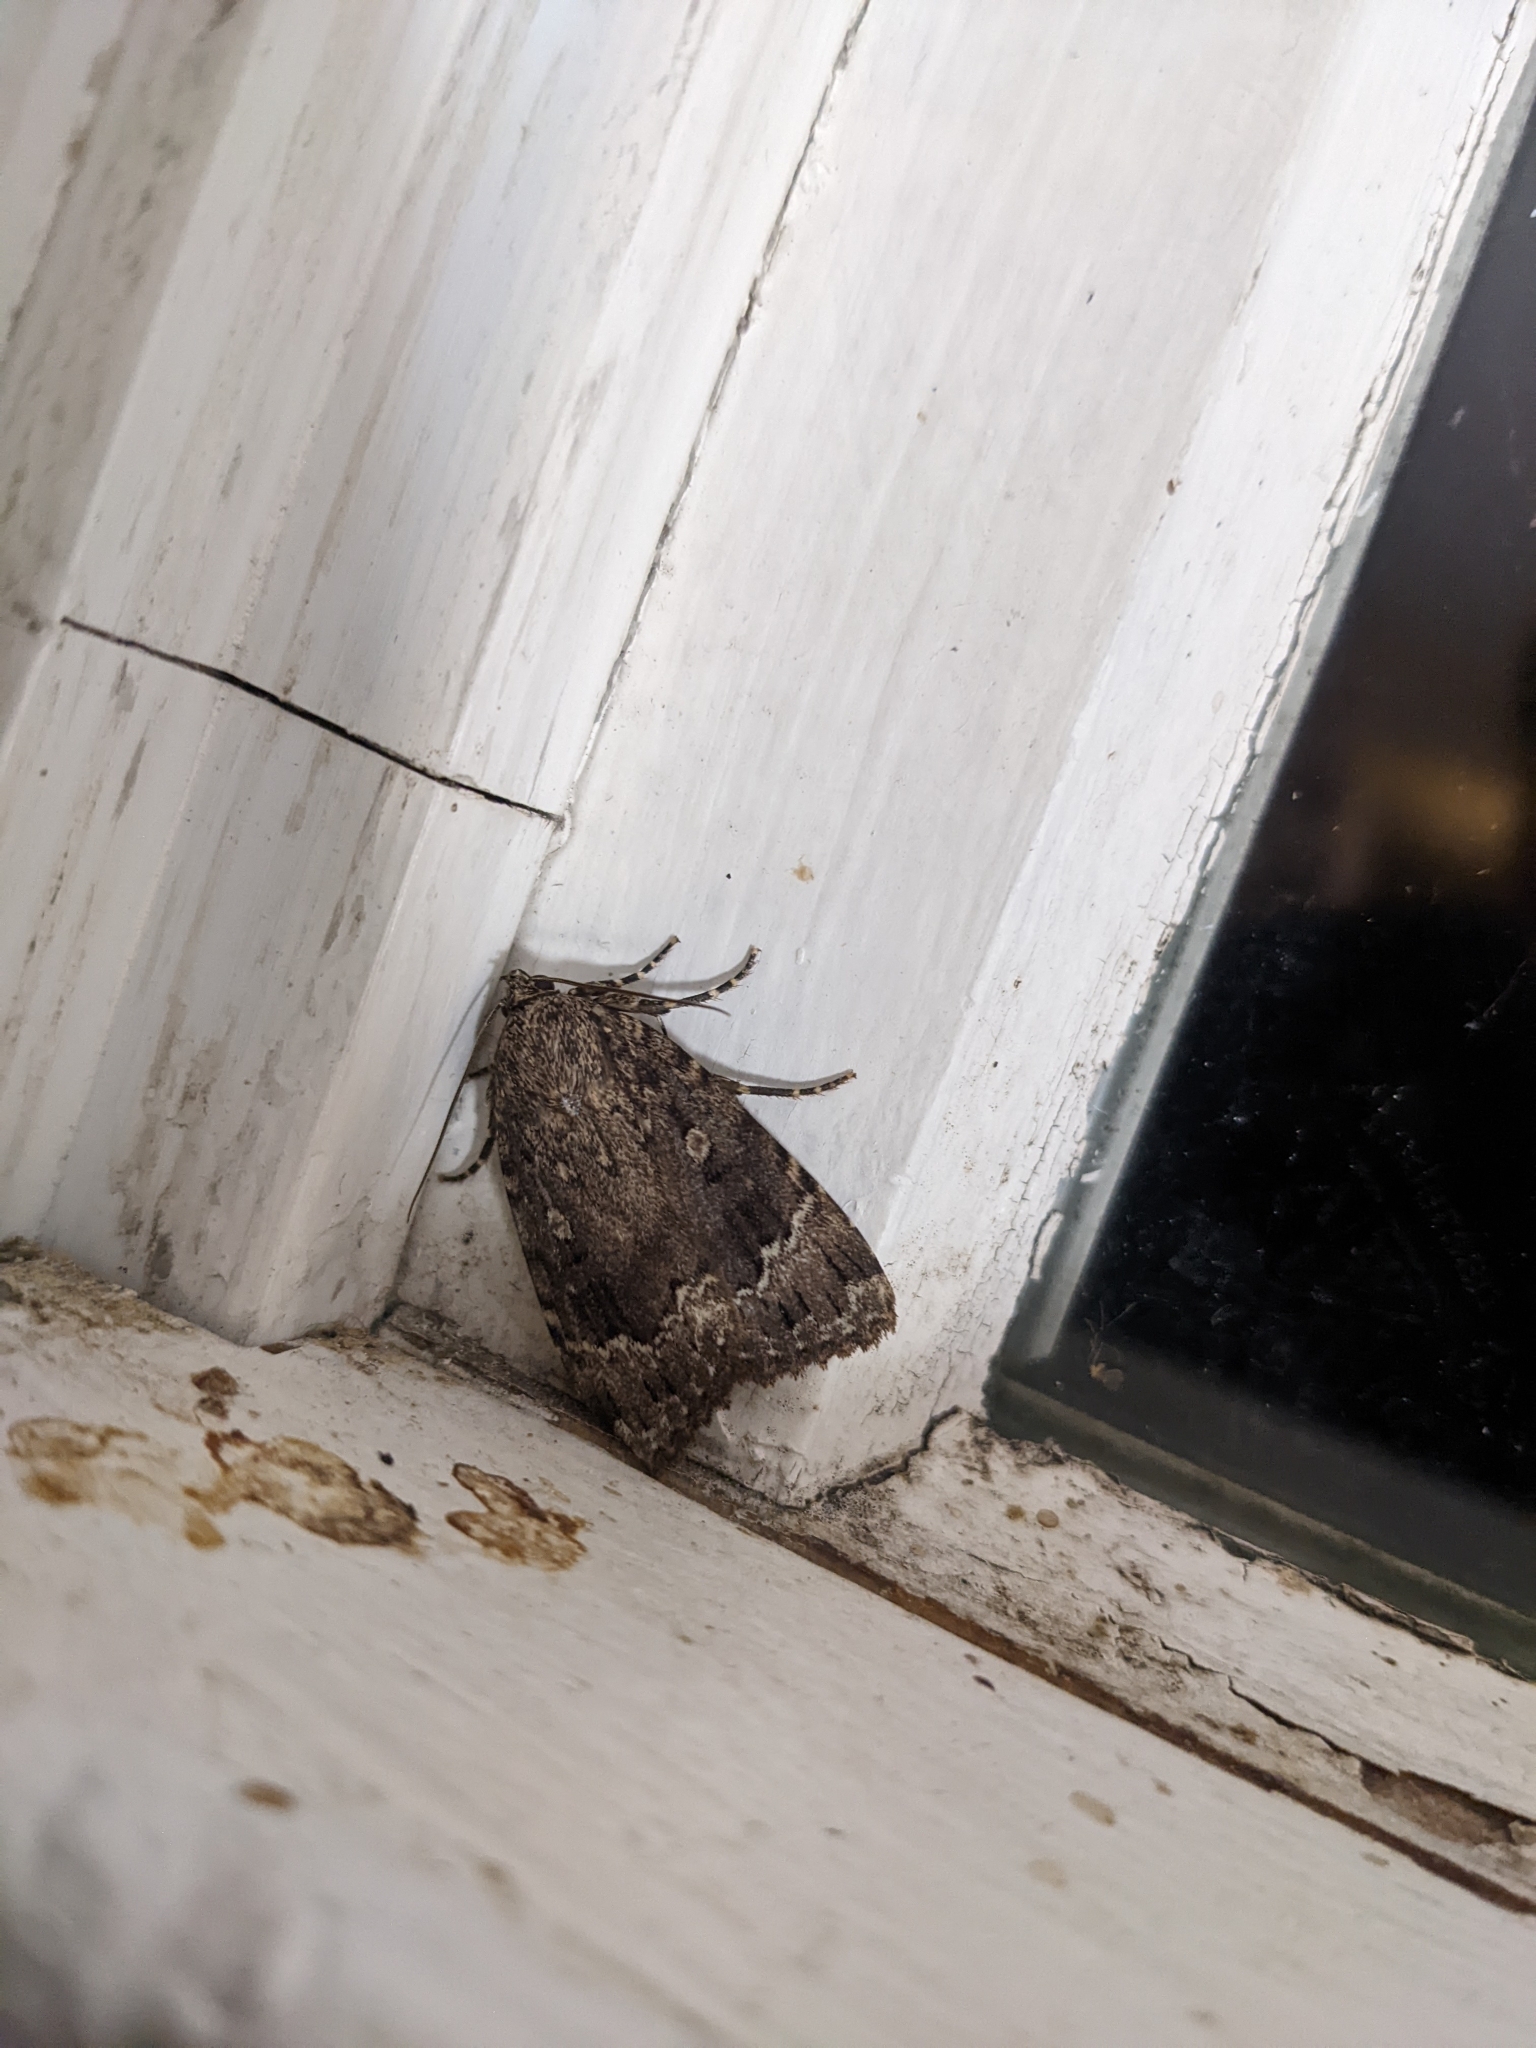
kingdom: Animalia
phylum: Arthropoda
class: Insecta
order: Lepidoptera
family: Noctuidae
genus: Amphipyra
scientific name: Amphipyra pyramidoides
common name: American copper underwing
